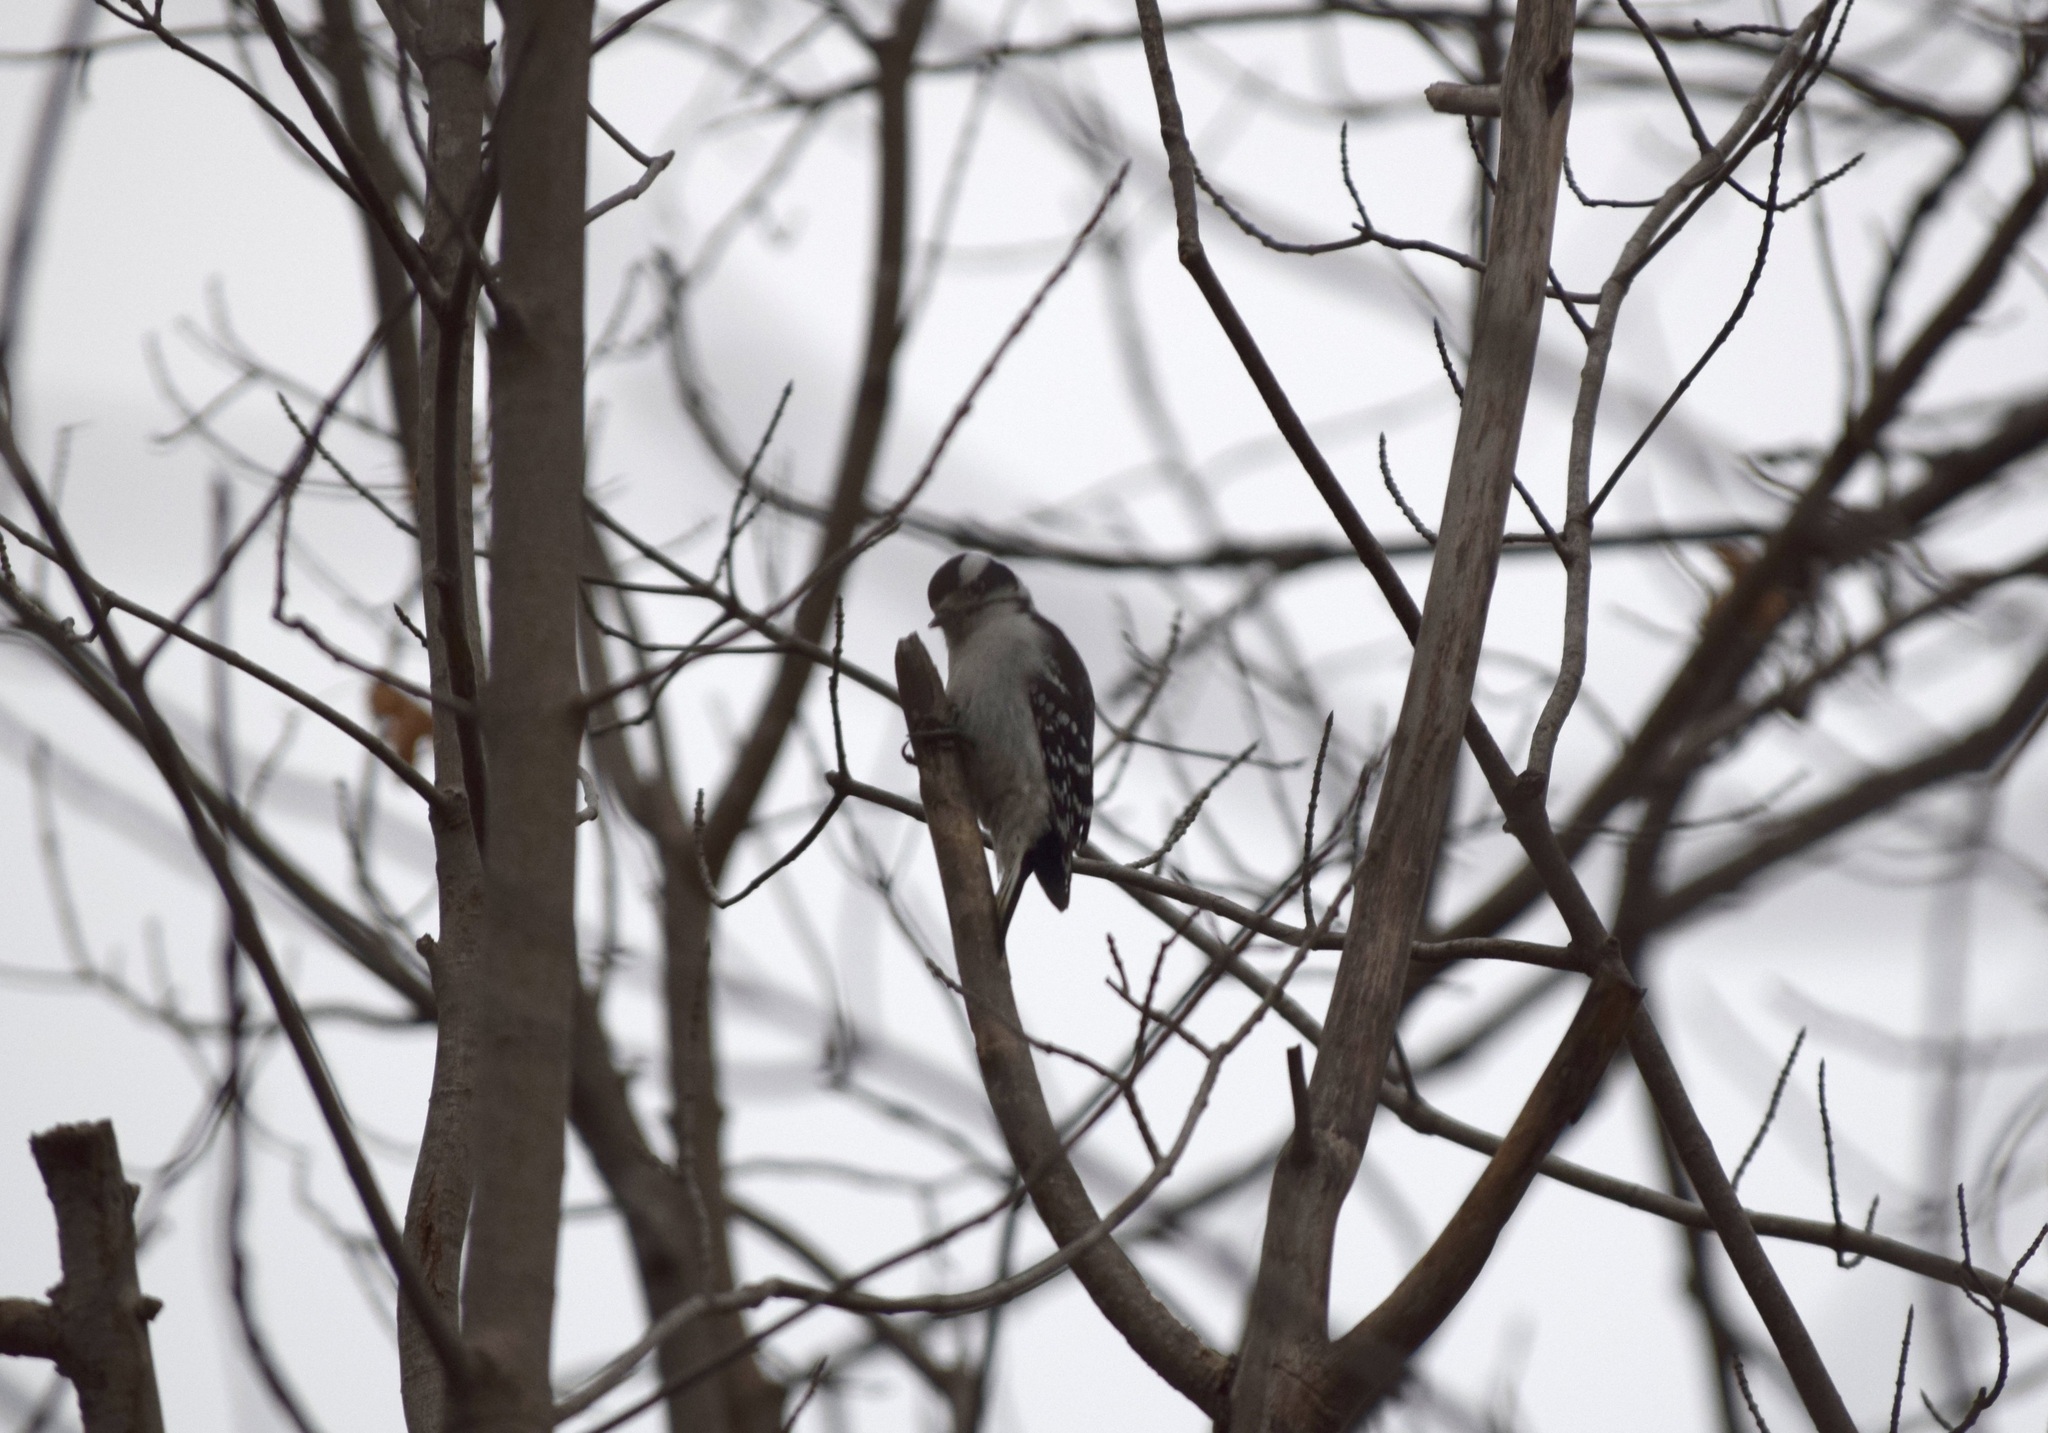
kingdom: Animalia
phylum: Chordata
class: Aves
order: Piciformes
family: Picidae
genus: Dryobates
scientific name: Dryobates pubescens
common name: Downy woodpecker
